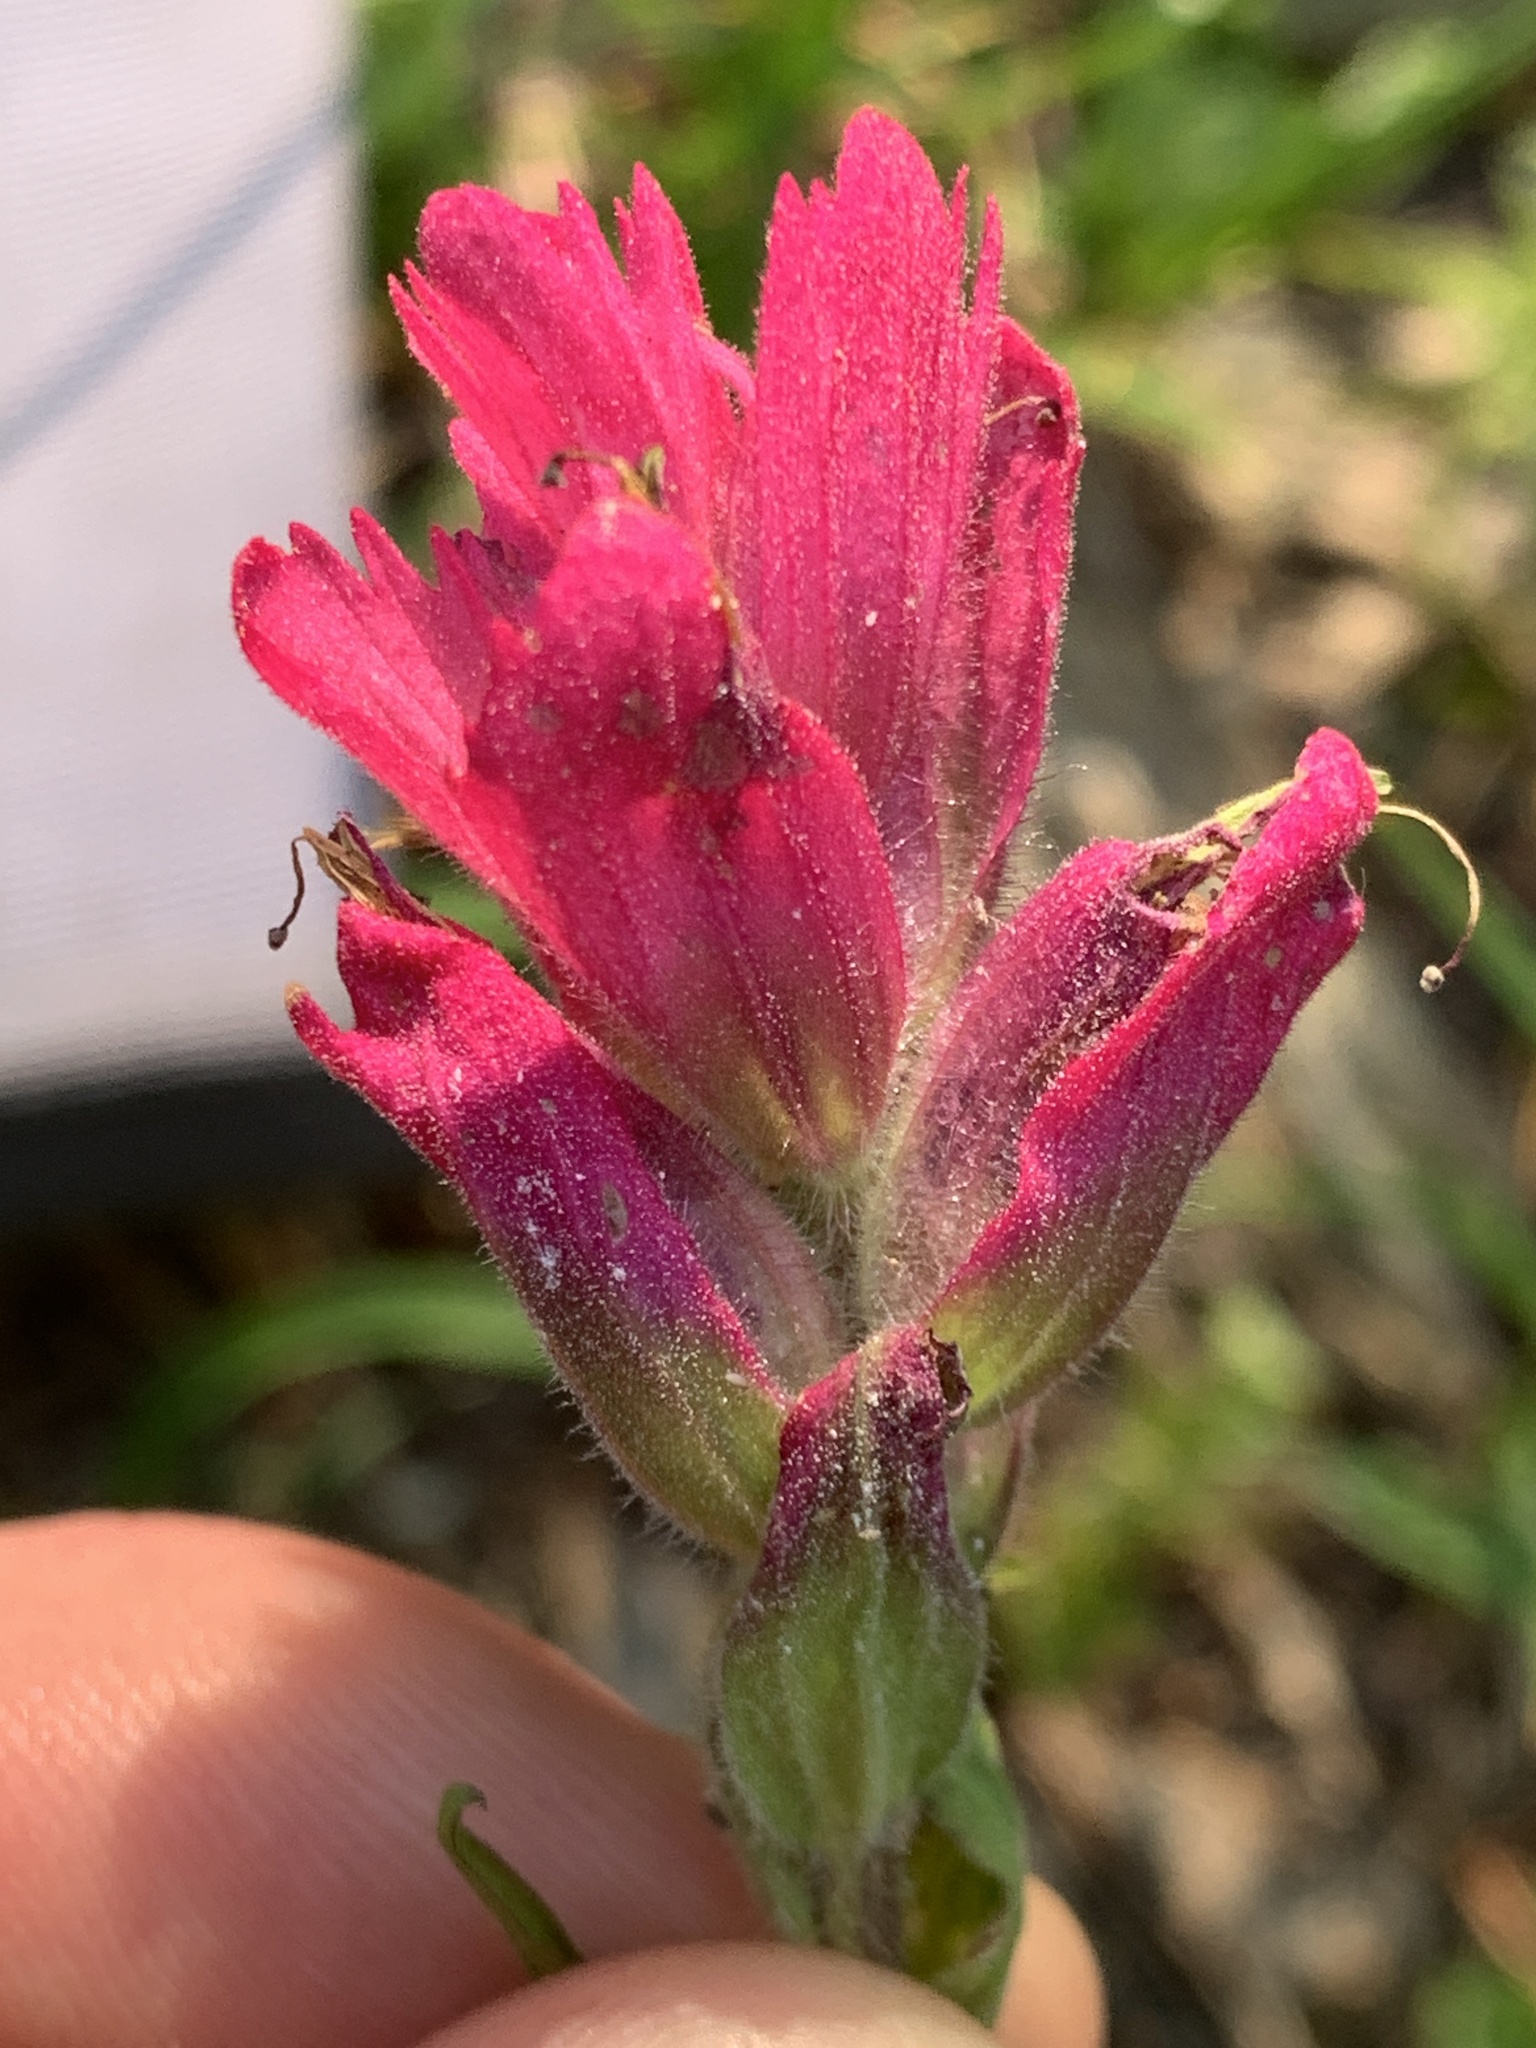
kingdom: Plantae
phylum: Tracheophyta
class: Magnoliopsida
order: Lamiales
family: Orobanchaceae
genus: Castilleja
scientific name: Castilleja rhexifolia
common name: Rocky mountain paintbrush
